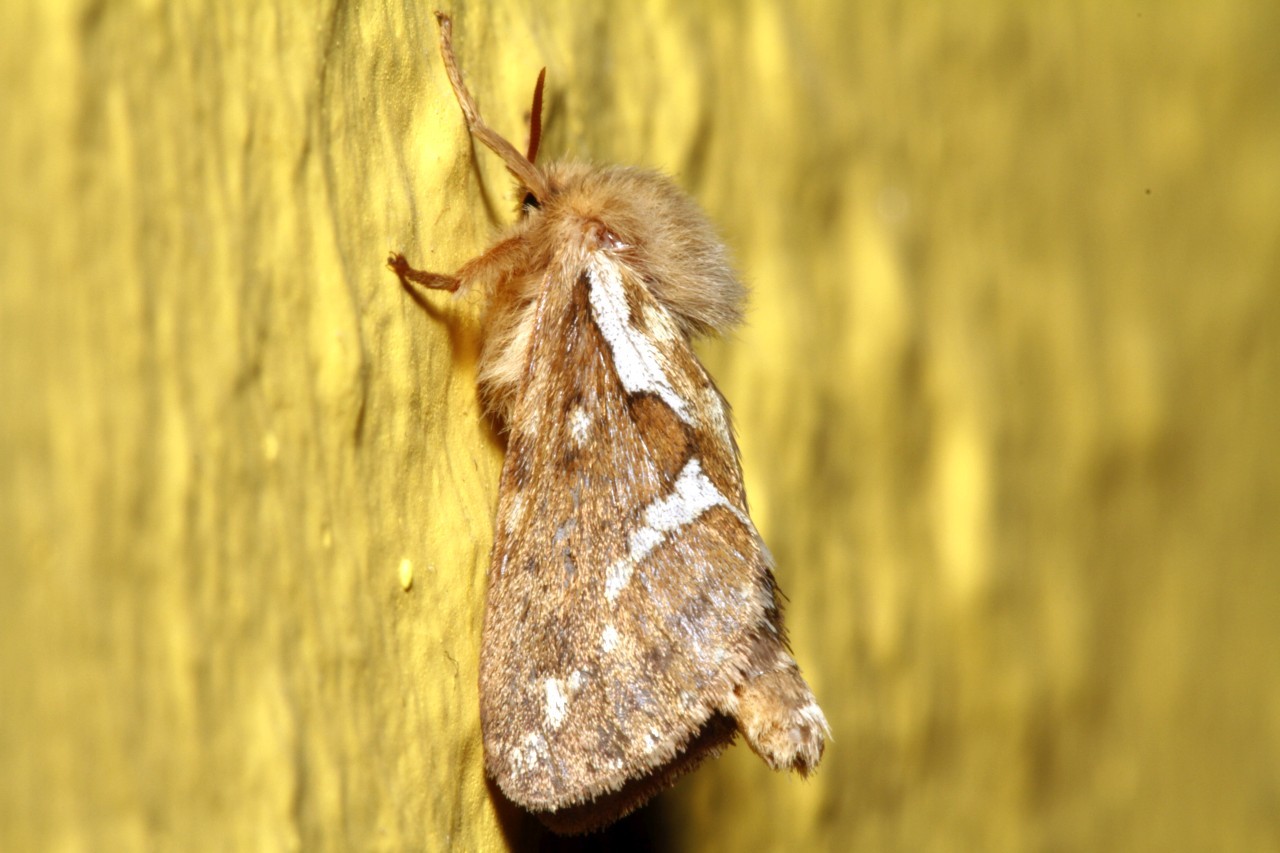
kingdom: Animalia
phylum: Arthropoda
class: Insecta
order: Lepidoptera
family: Hepialidae
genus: Korscheltellus
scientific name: Korscheltellus lupulina
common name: Common swift
